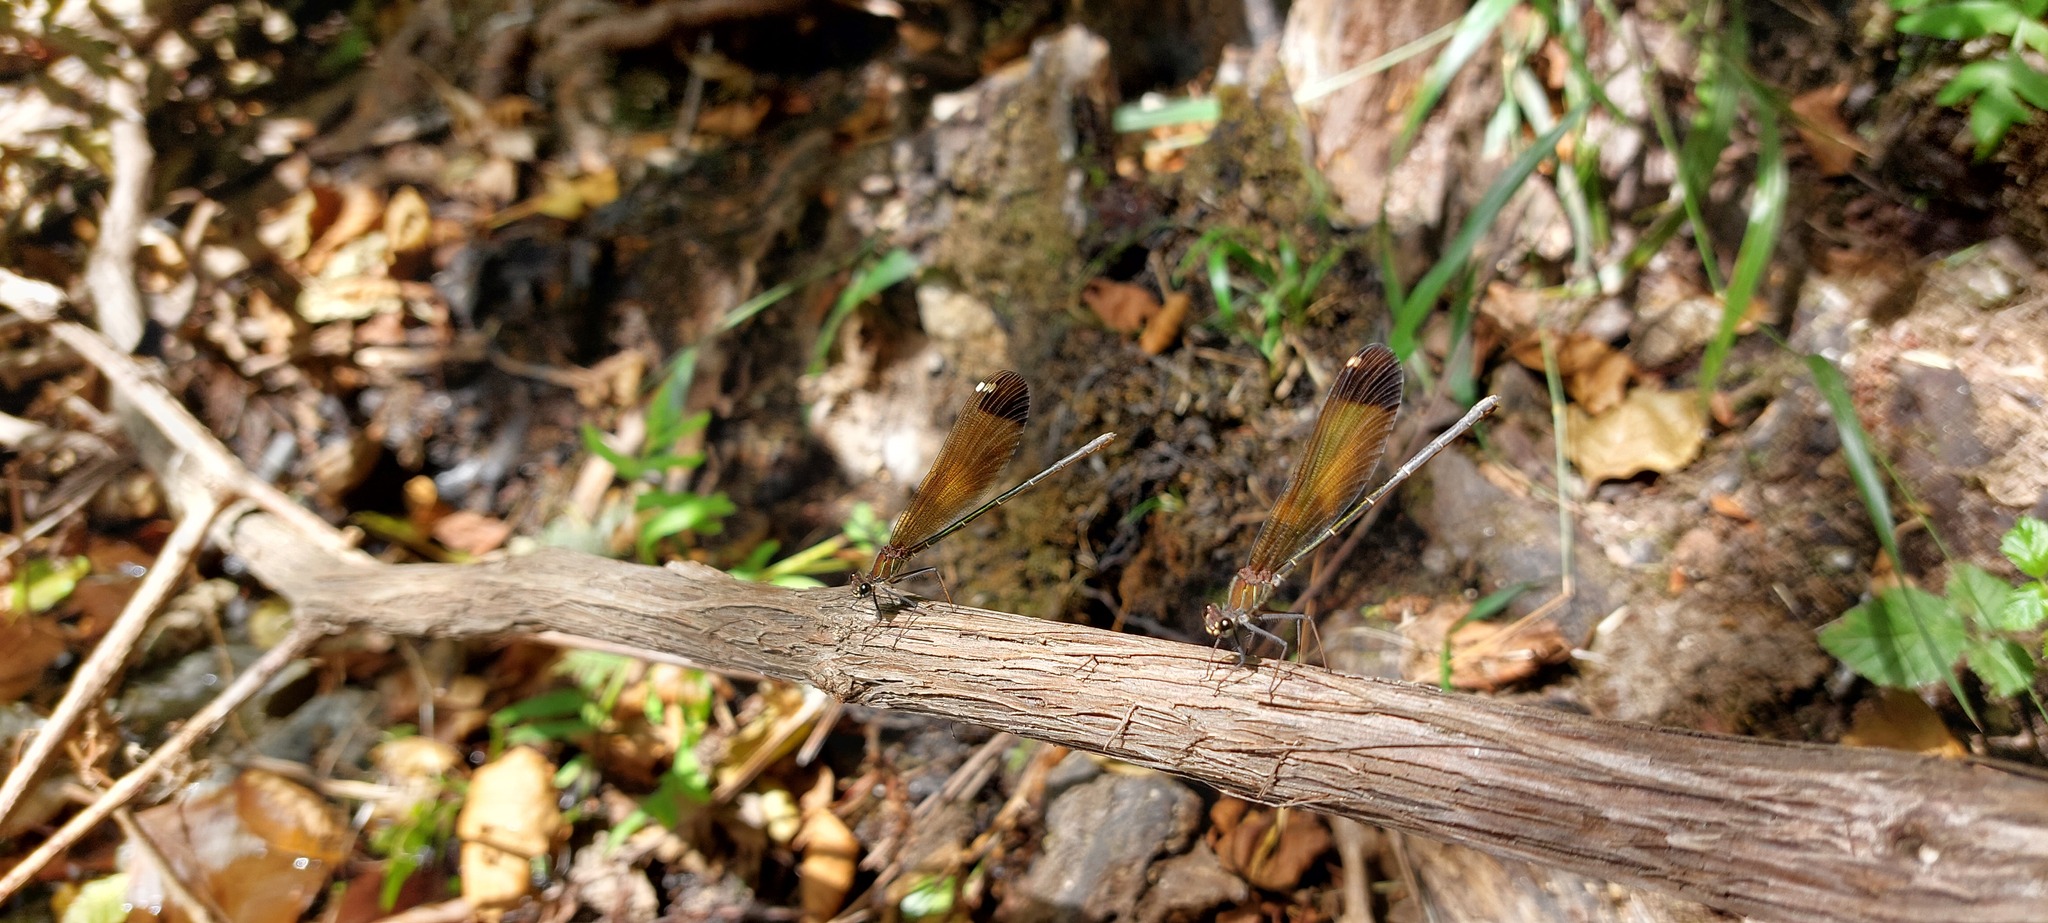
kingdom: Animalia
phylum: Arthropoda
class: Insecta
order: Odonata
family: Calopterygidae
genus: Calopteryx
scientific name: Calopteryx haemorrhoidalis
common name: Copper demoiselle
